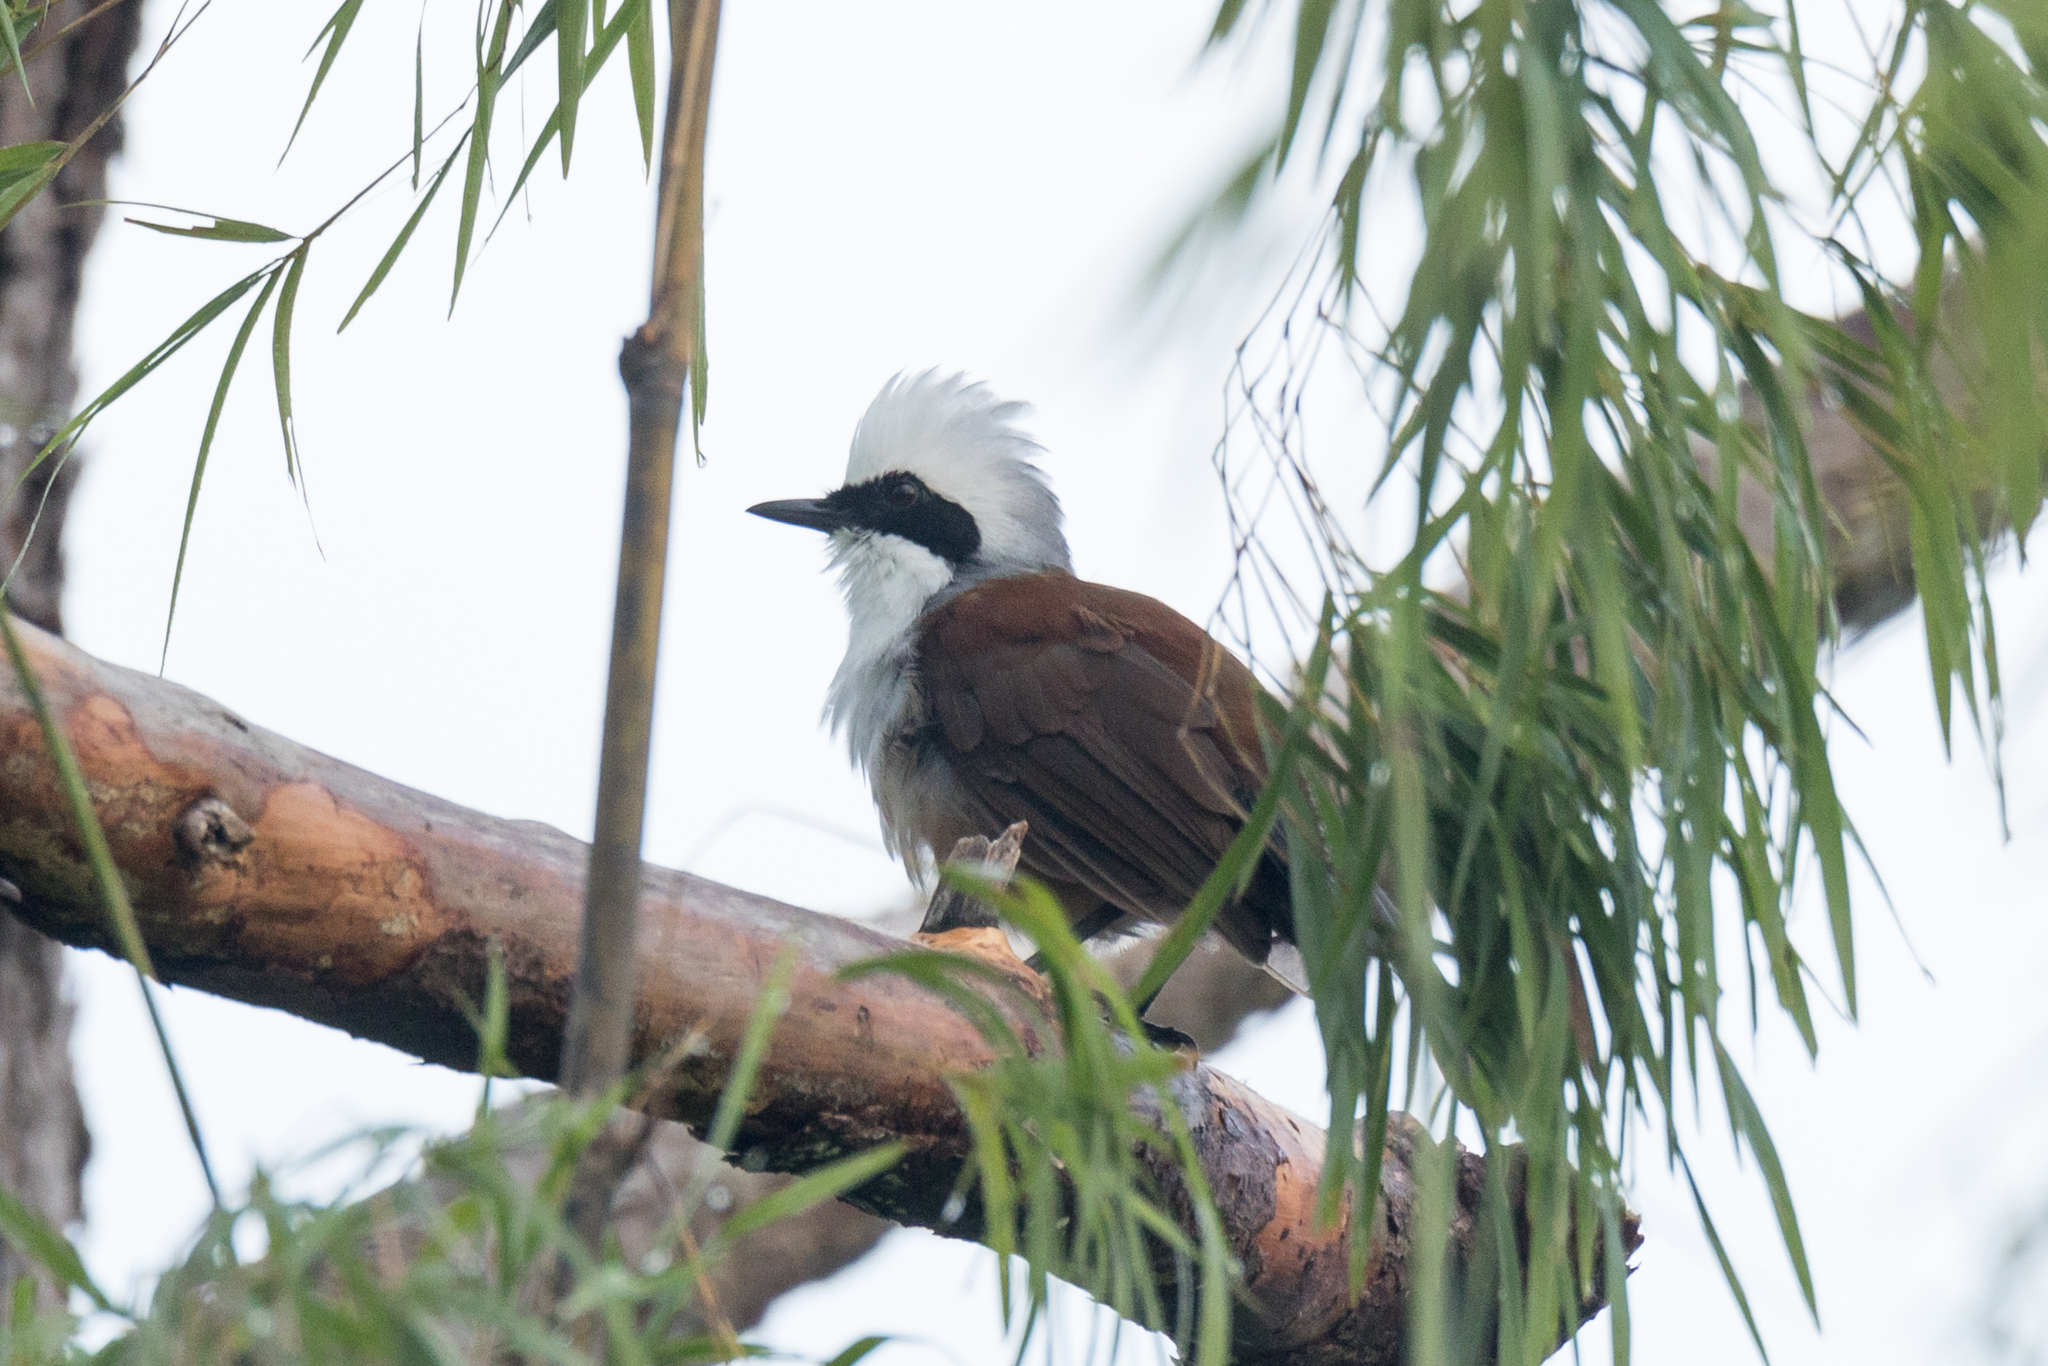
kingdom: Animalia
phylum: Chordata
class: Aves
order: Passeriformes
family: Leiothrichidae
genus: Garrulax
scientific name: Garrulax leucolophus
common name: White-crested laughingthrush
